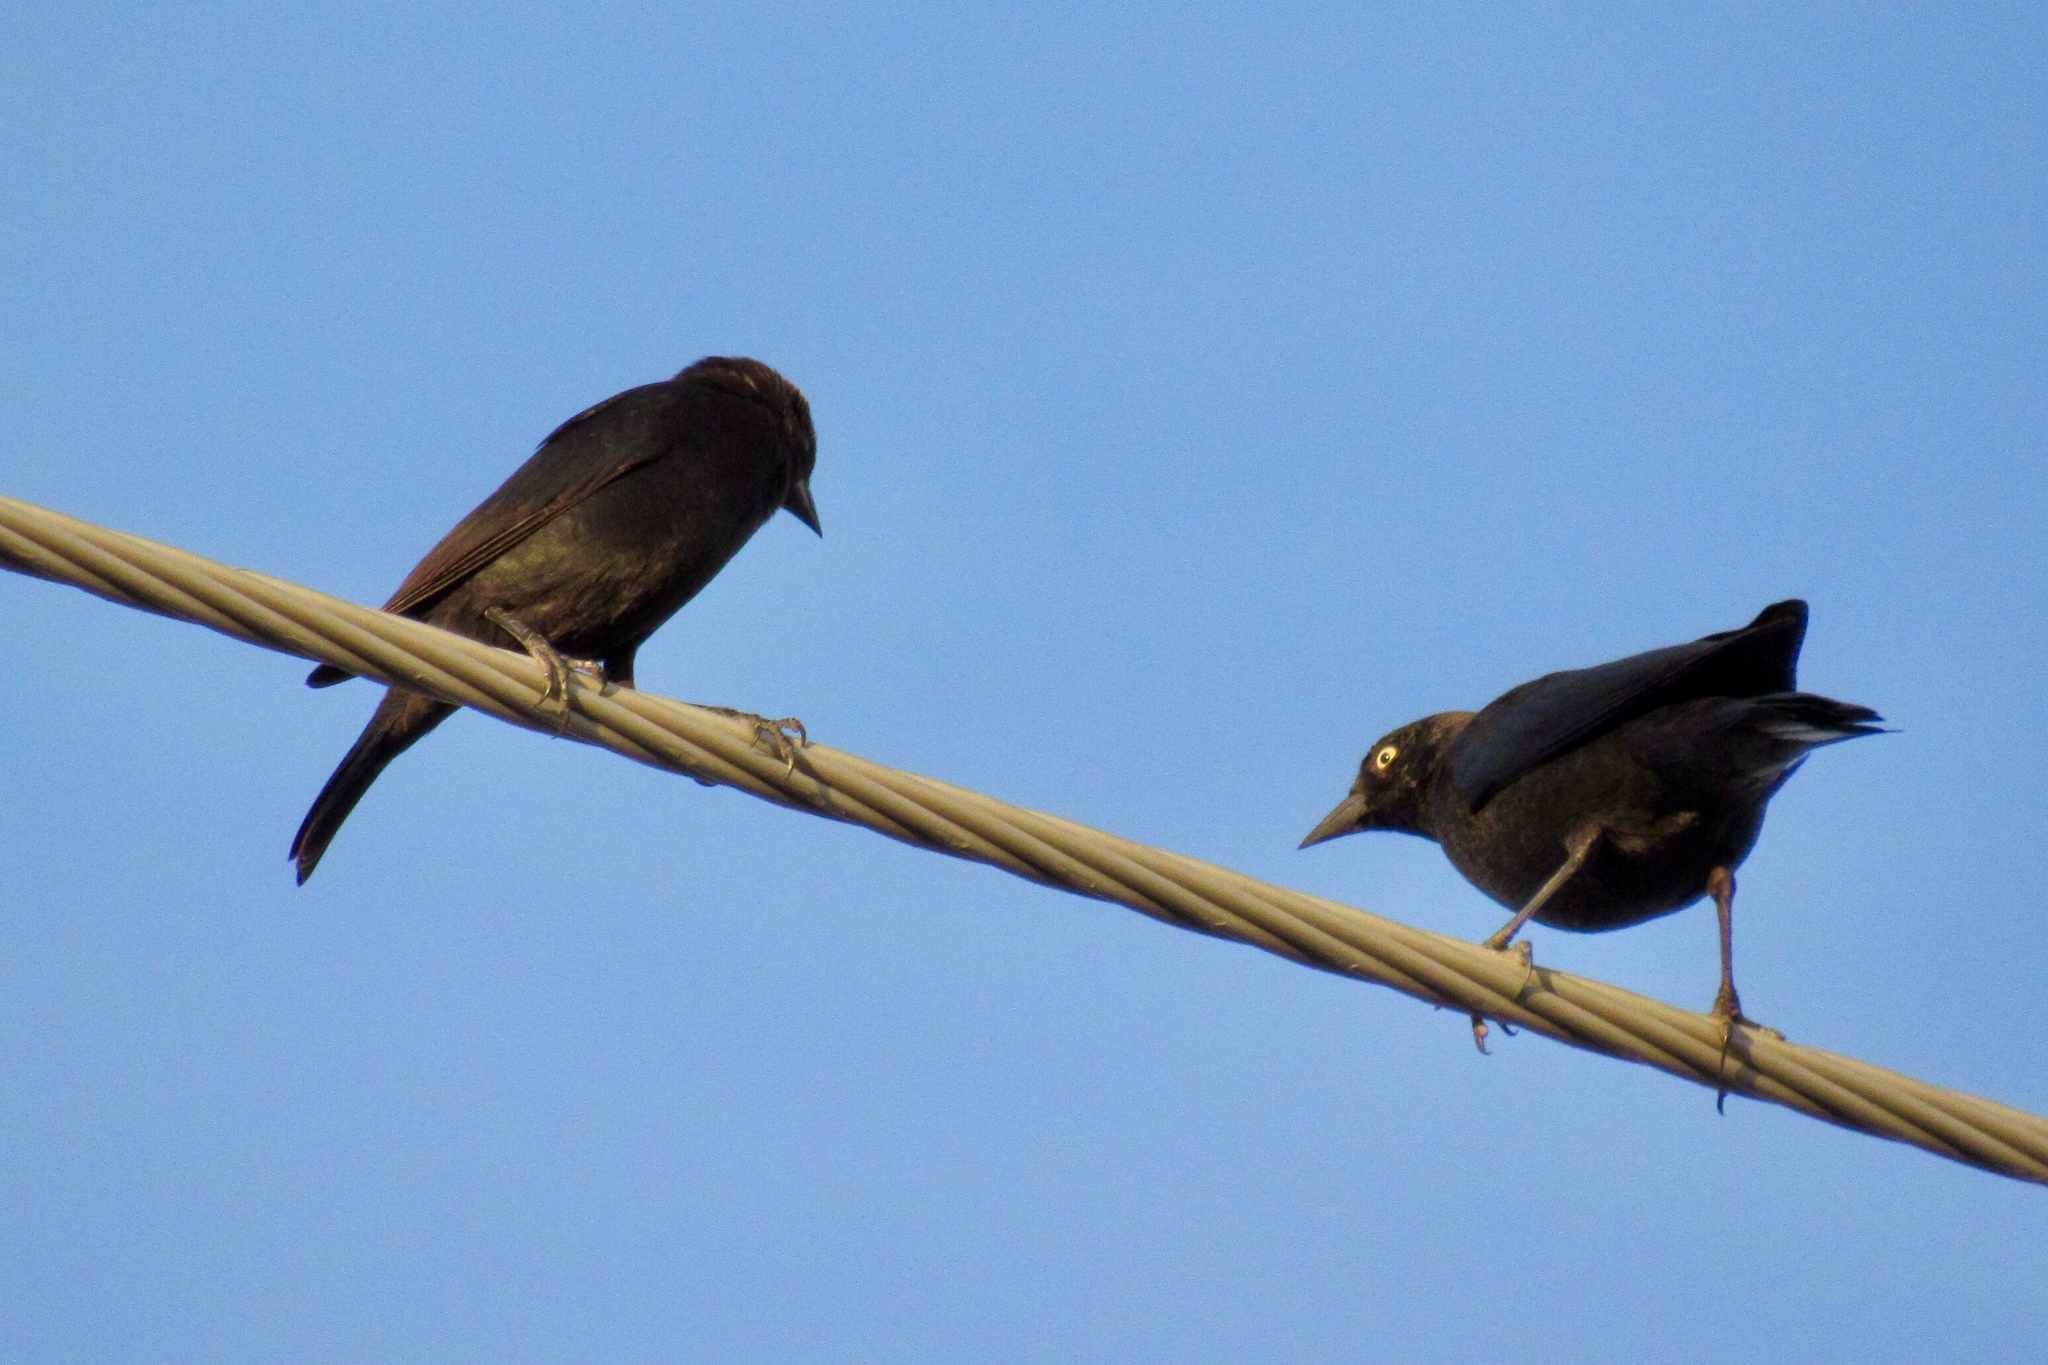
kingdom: Animalia
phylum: Chordata
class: Aves
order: Passeriformes
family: Icteridae
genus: Euphagus
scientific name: Euphagus cyanocephalus
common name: Brewer's blackbird
